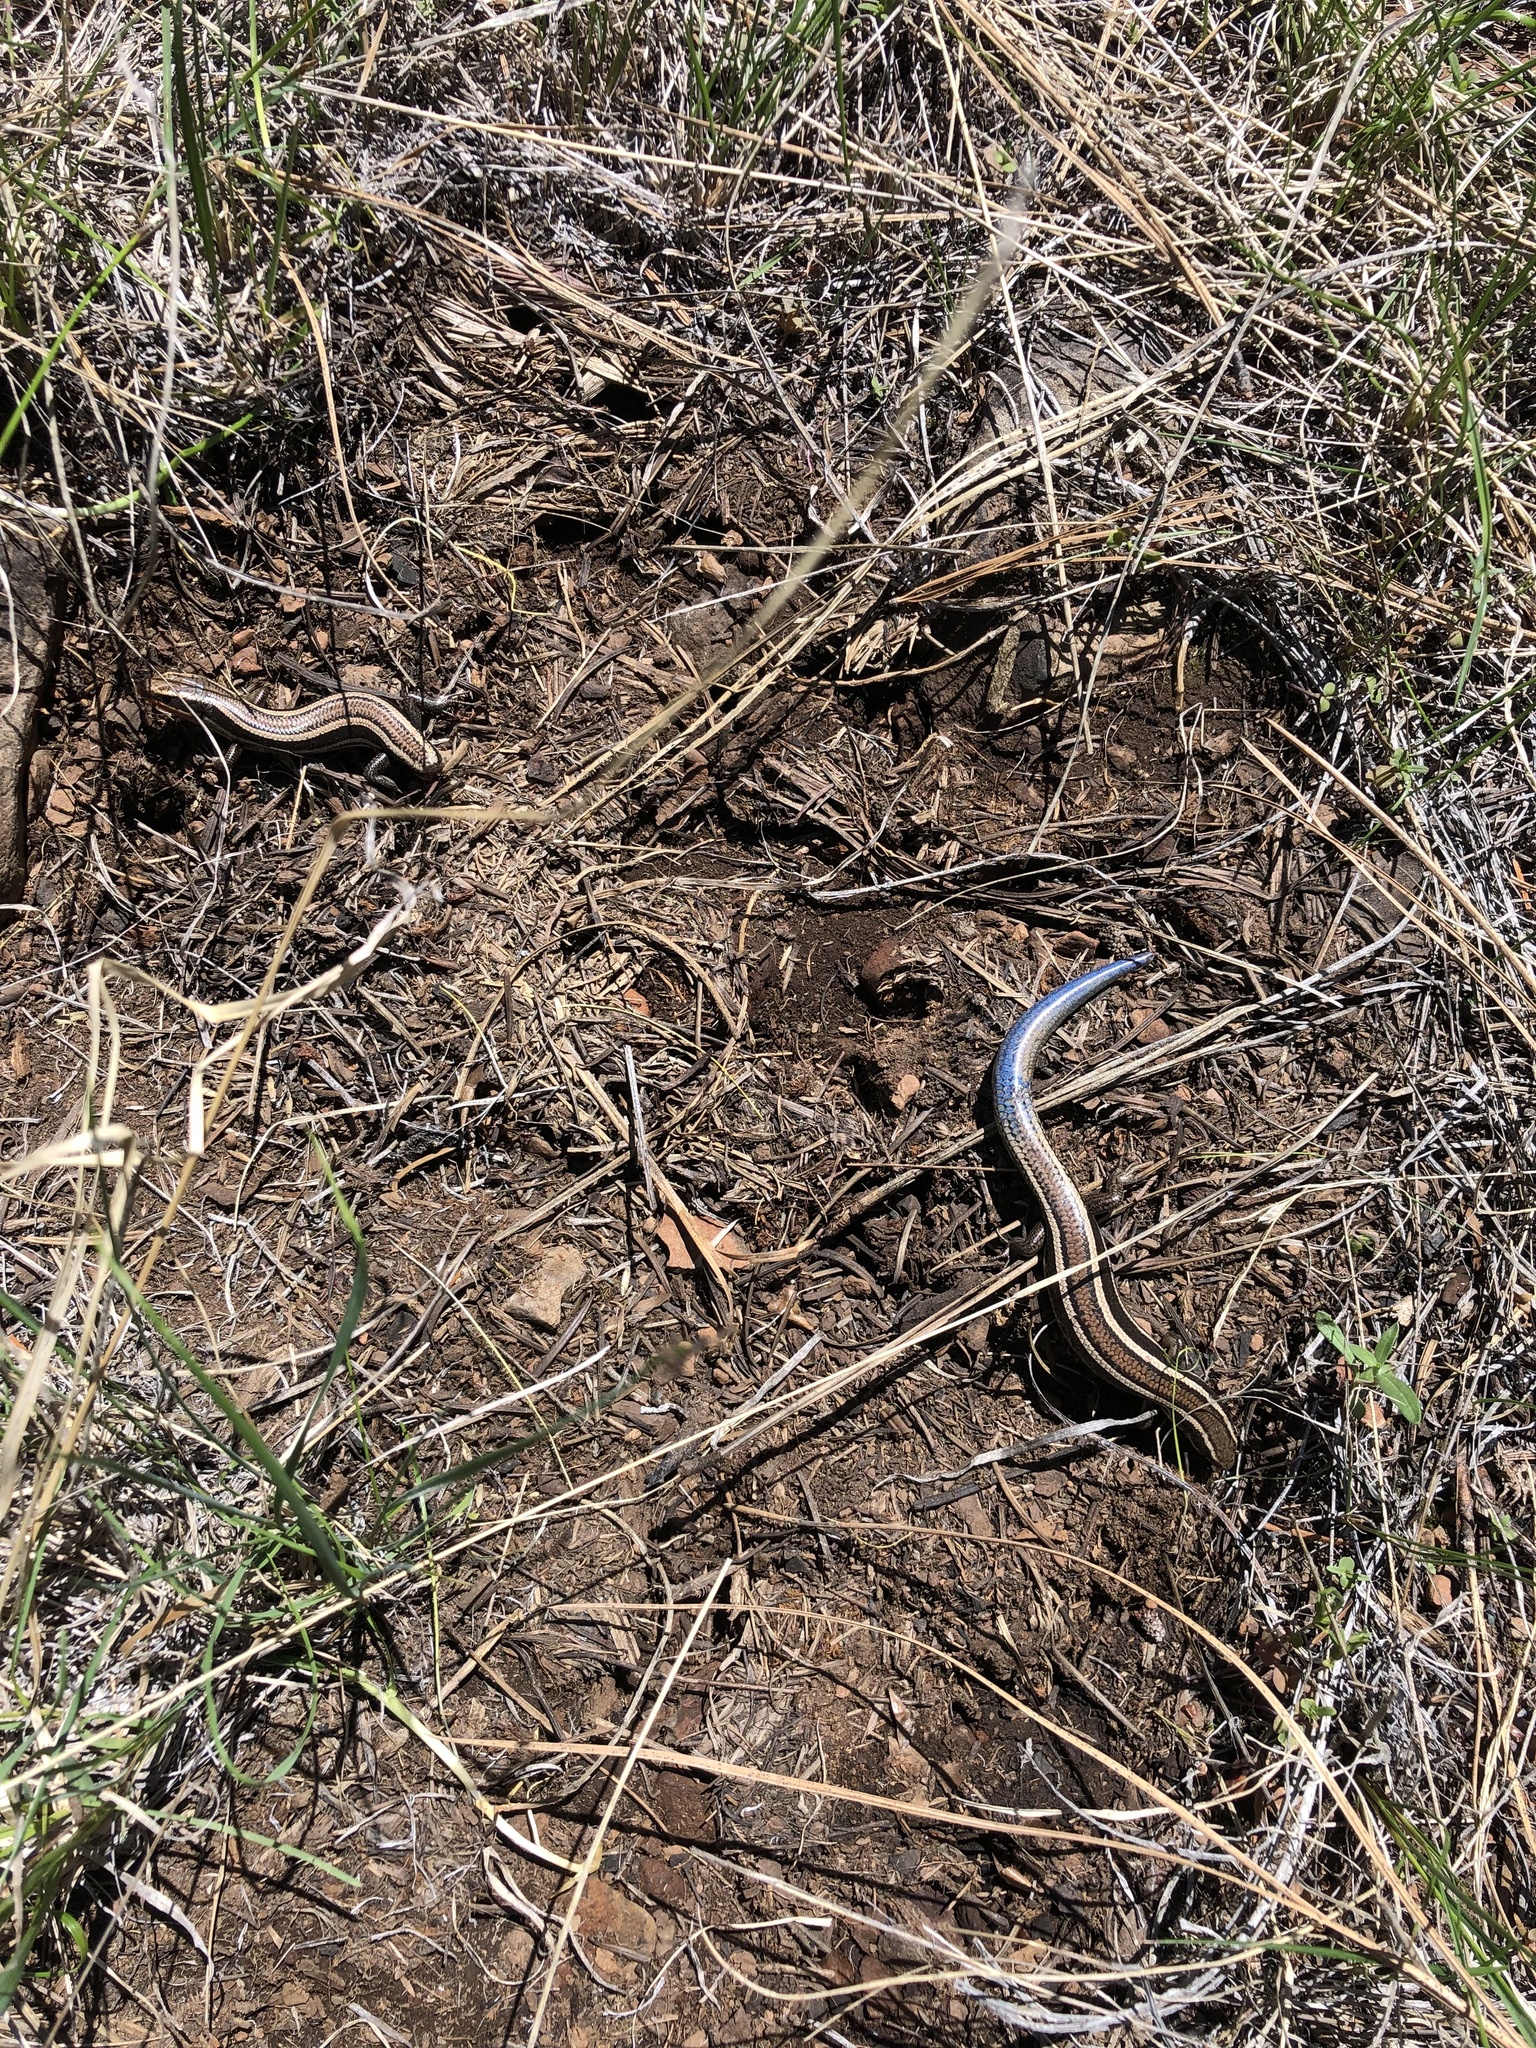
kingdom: Animalia
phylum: Chordata
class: Squamata
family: Scincidae
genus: Plestiodon
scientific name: Plestiodon skiltonianus
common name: Coronado island skink [interparietalis]
